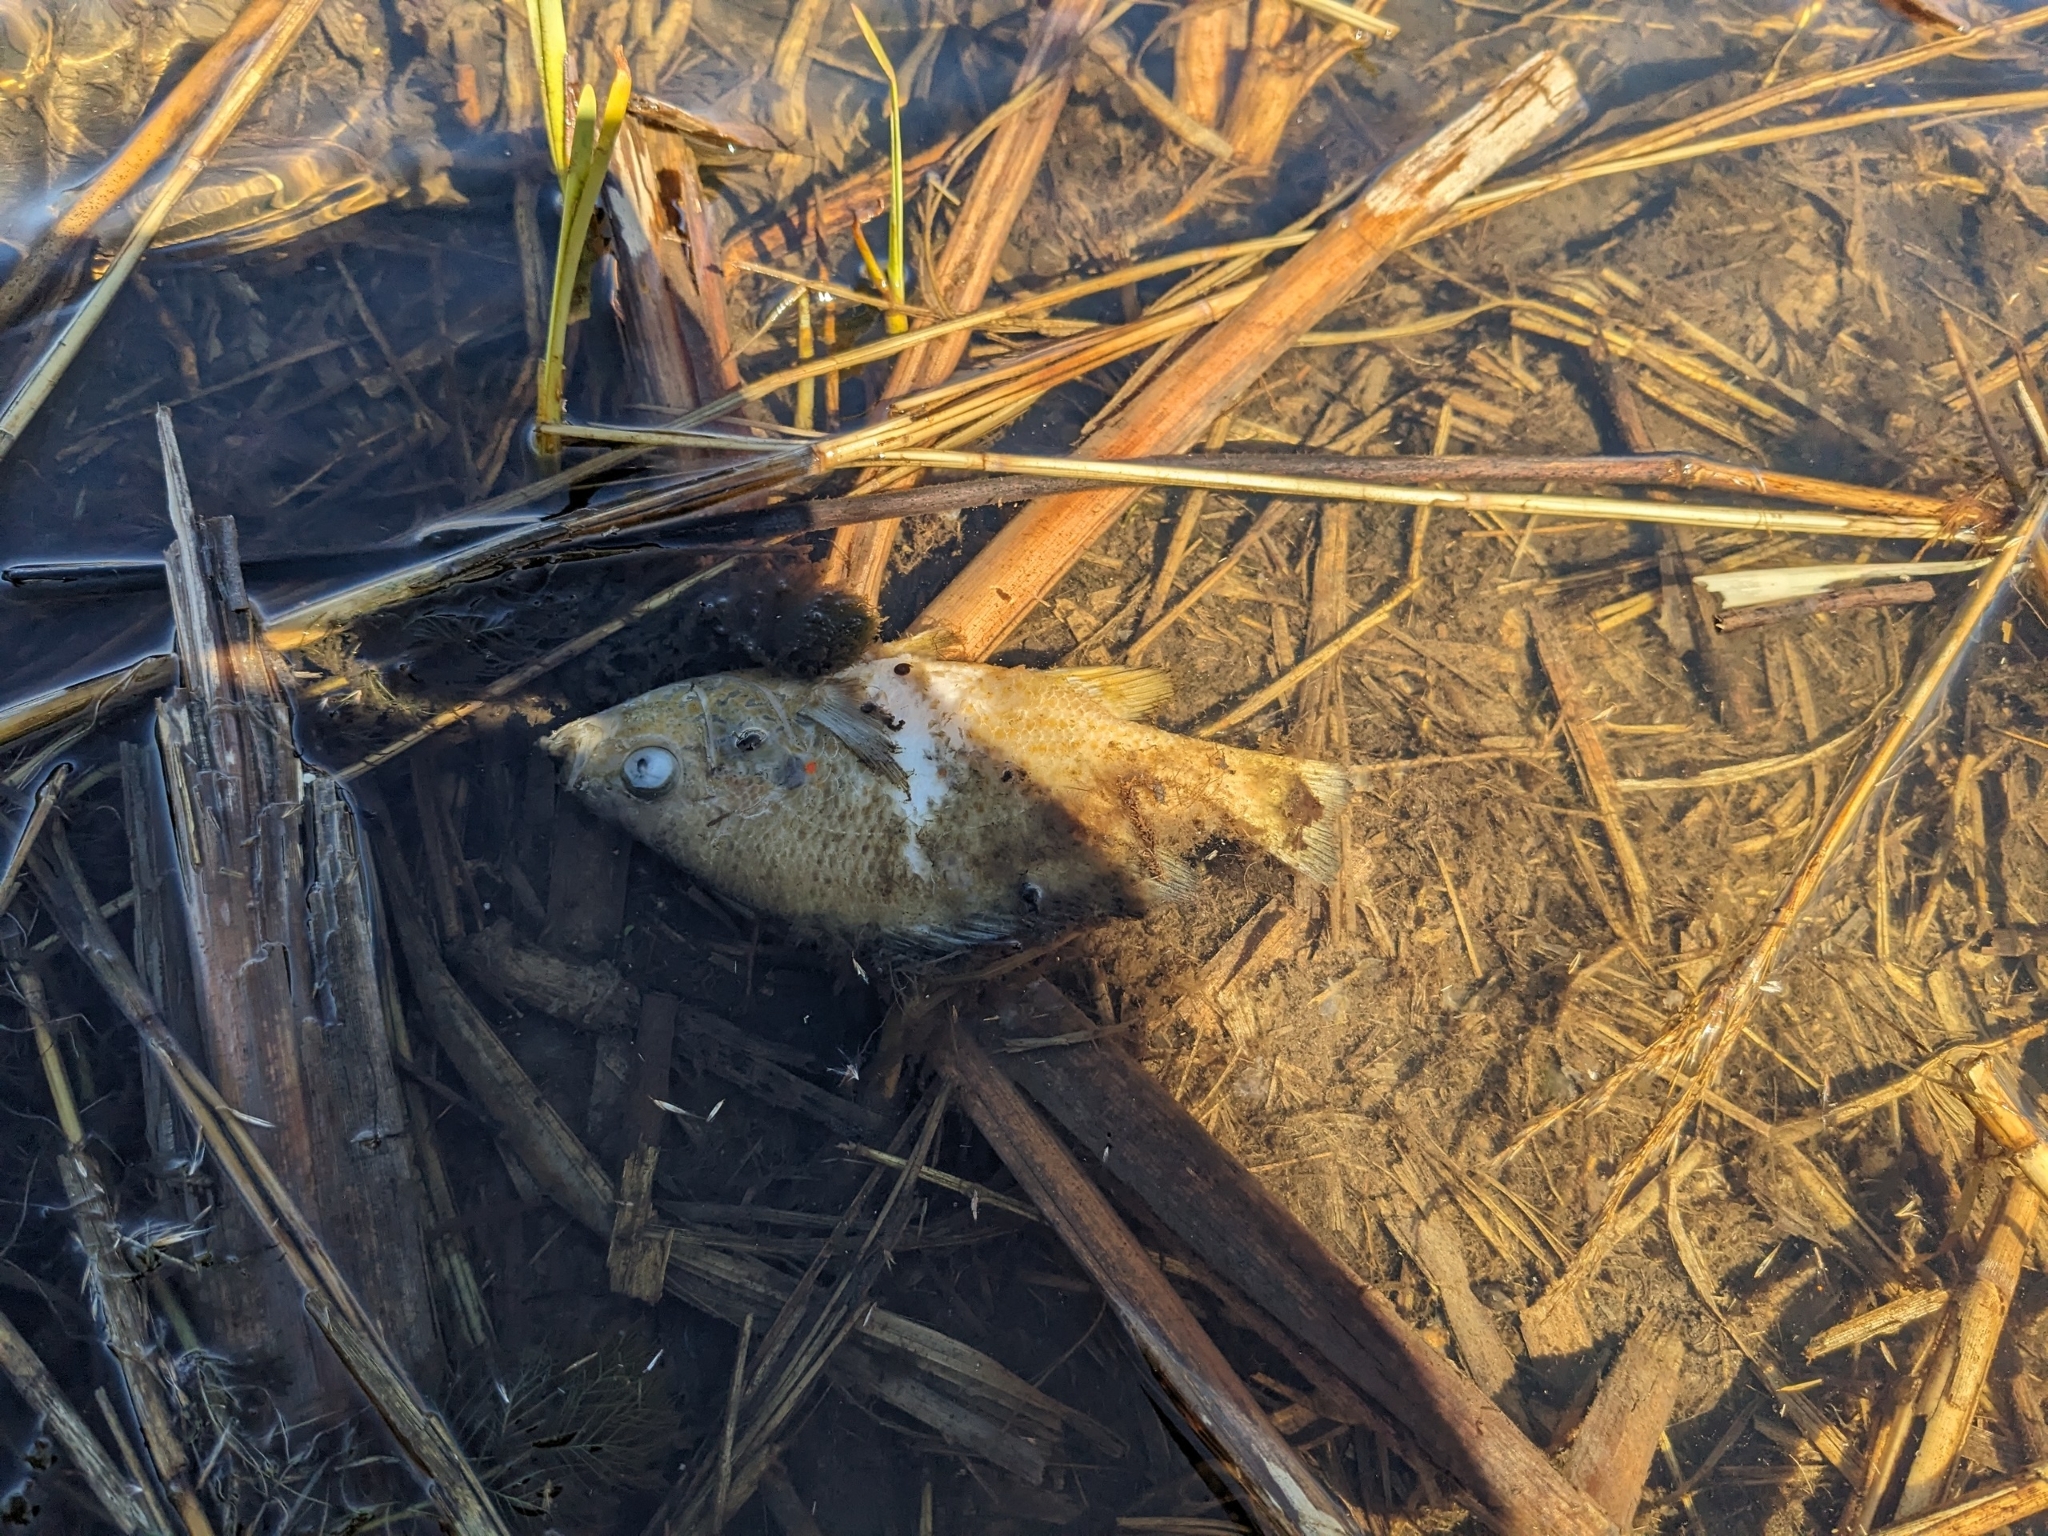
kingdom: Animalia
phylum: Chordata
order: Perciformes
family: Centrarchidae
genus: Lepomis
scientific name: Lepomis gibbosus
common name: Pumpkinseed
